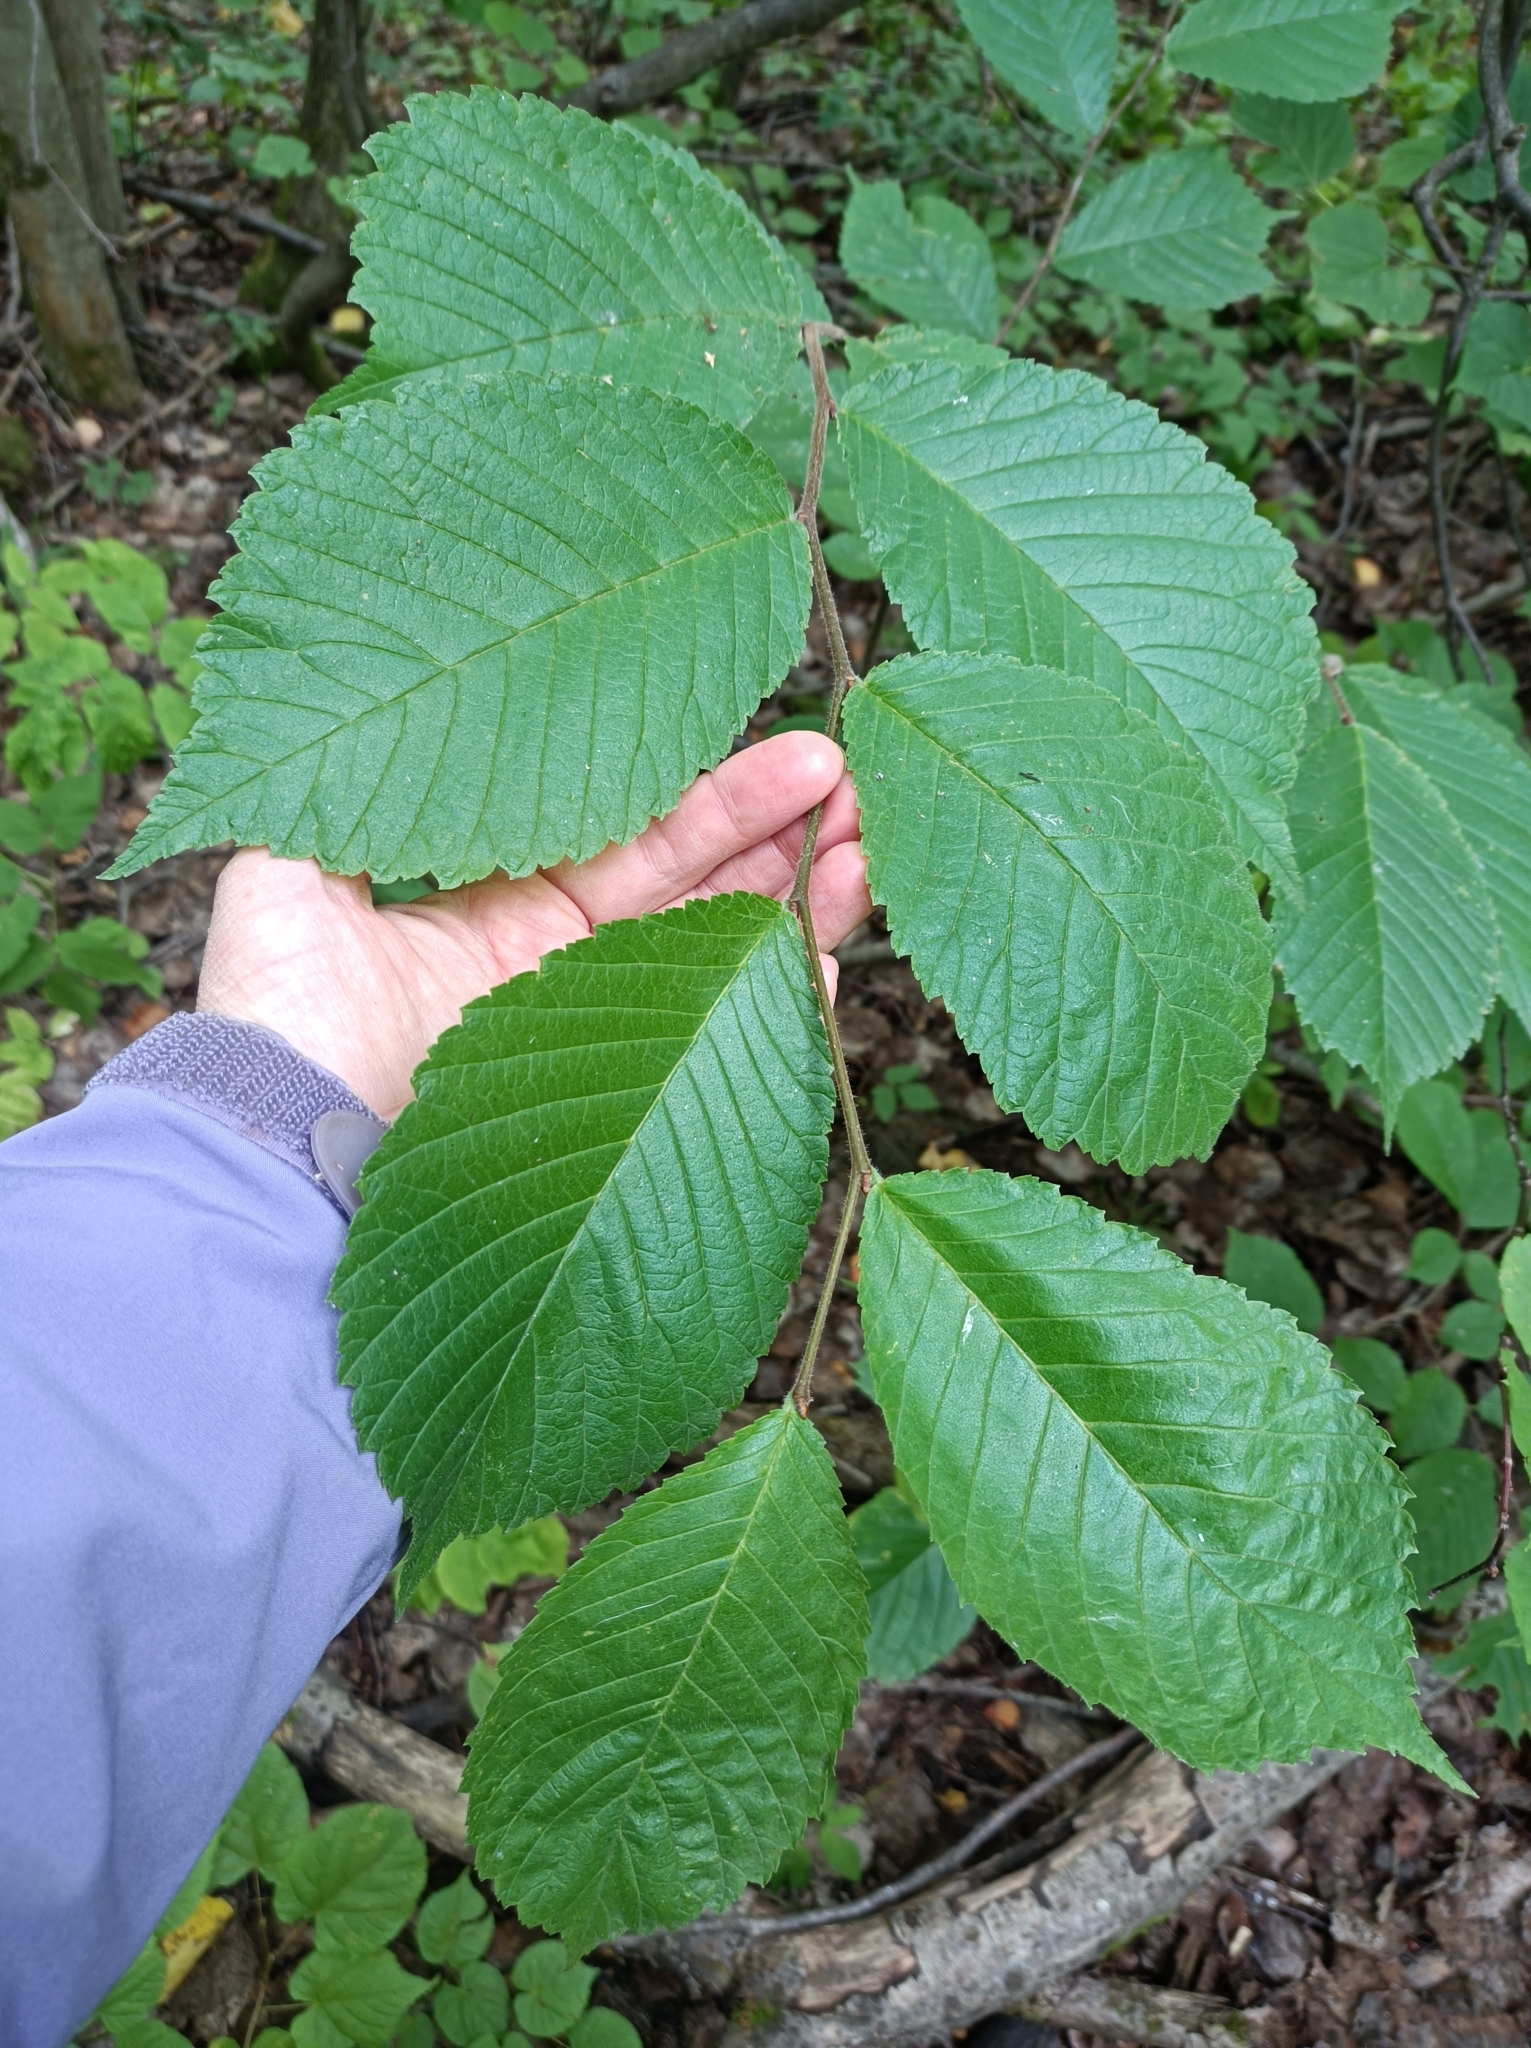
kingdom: Plantae
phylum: Tracheophyta
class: Magnoliopsida
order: Rosales
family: Ulmaceae
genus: Ulmus
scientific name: Ulmus glabra
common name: Wych elm
